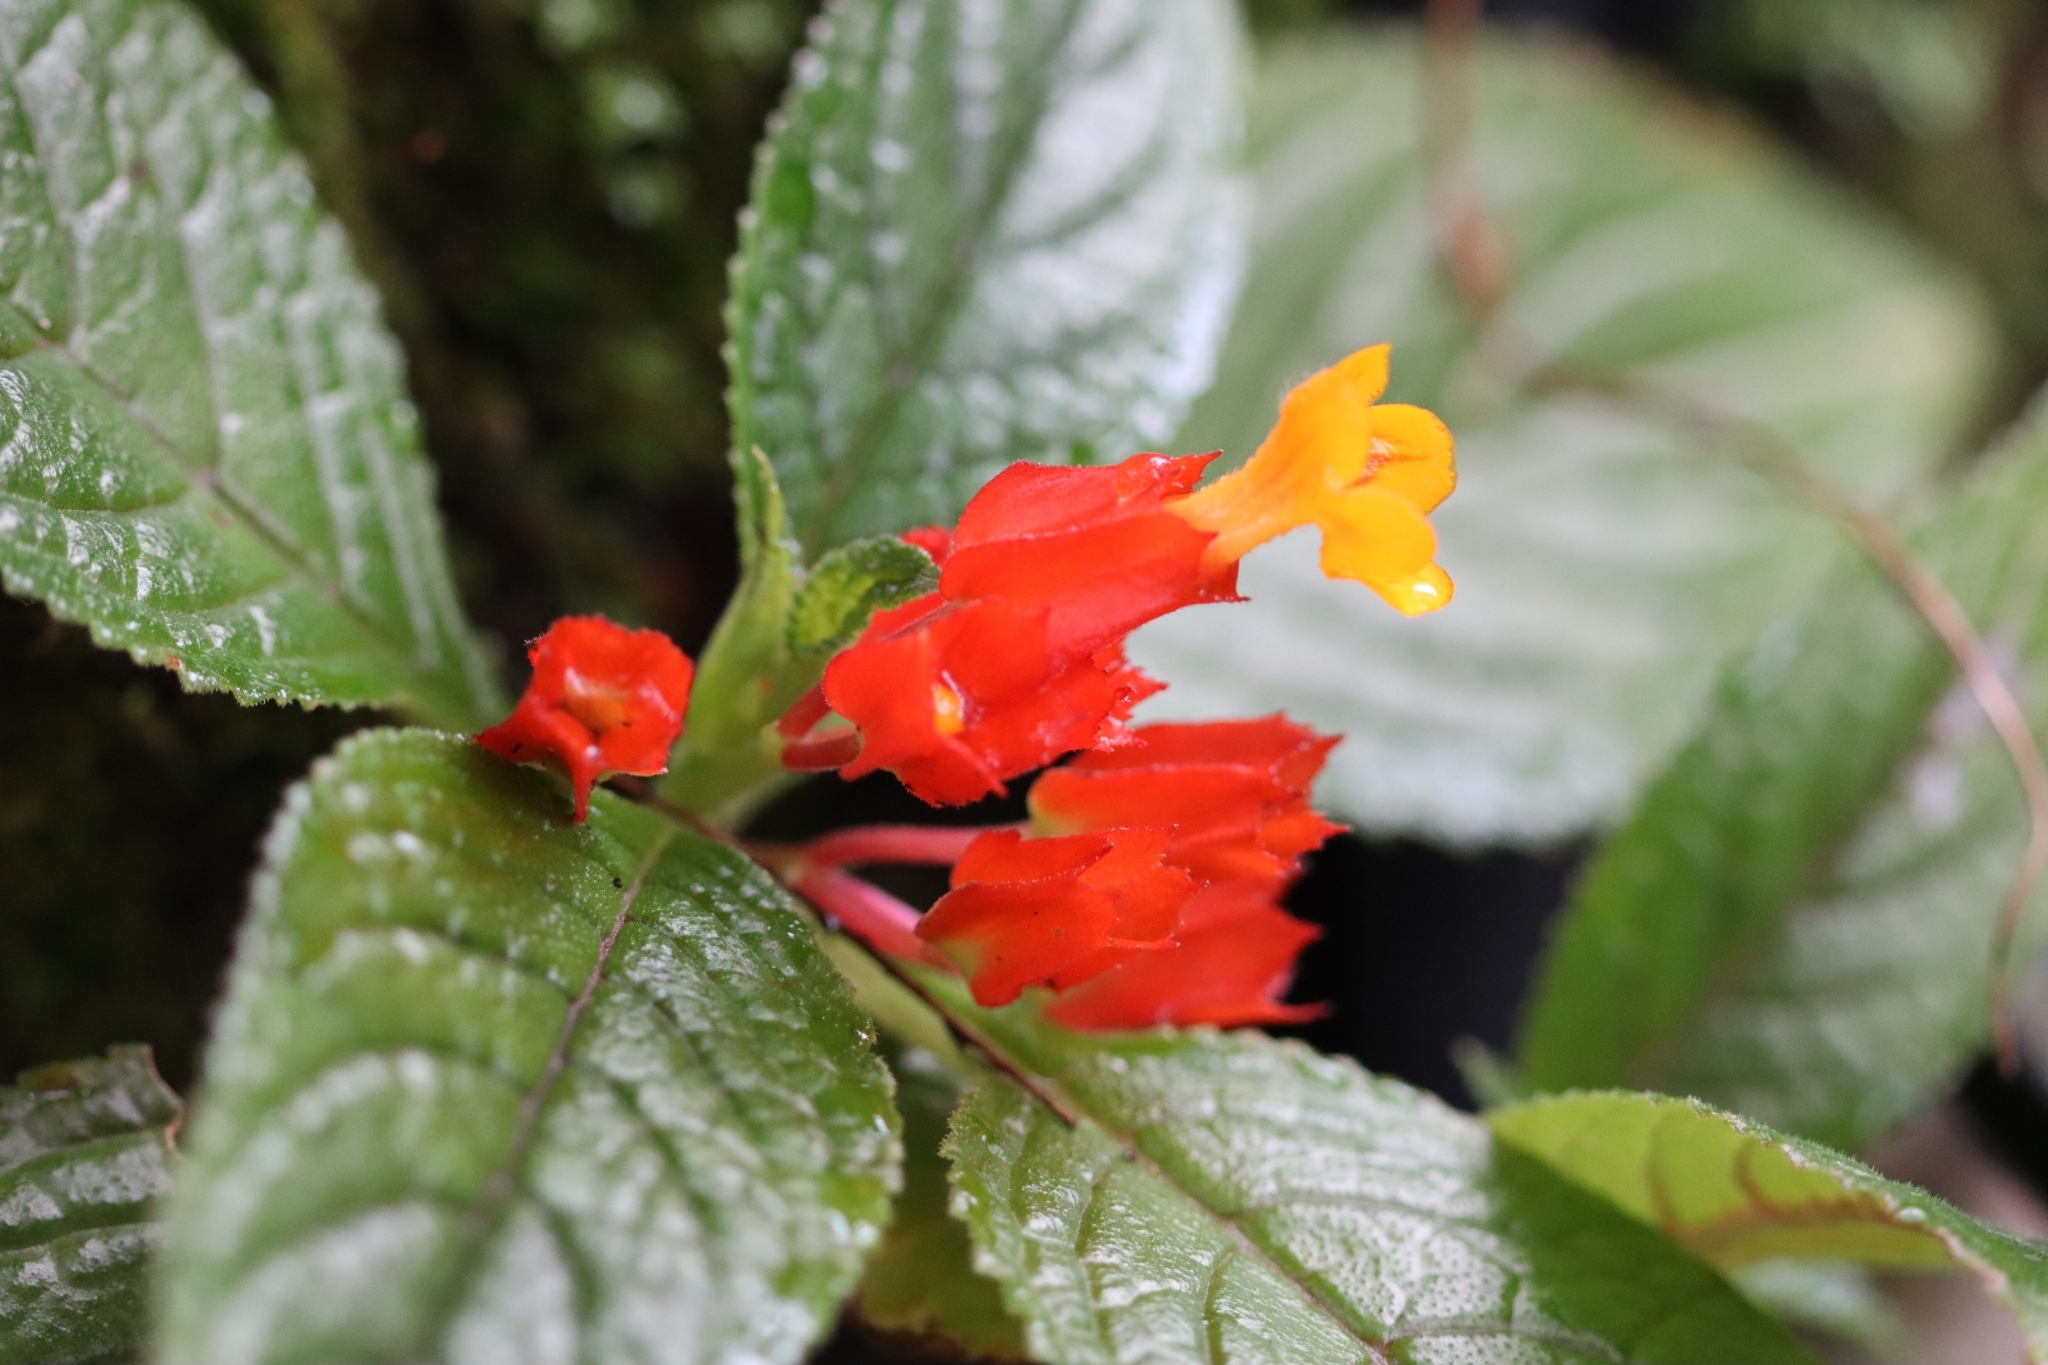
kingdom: Plantae
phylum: Tracheophyta
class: Magnoliopsida
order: Lamiales
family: Gesneriaceae
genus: Chrysothemis
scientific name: Chrysothemis pulchella
